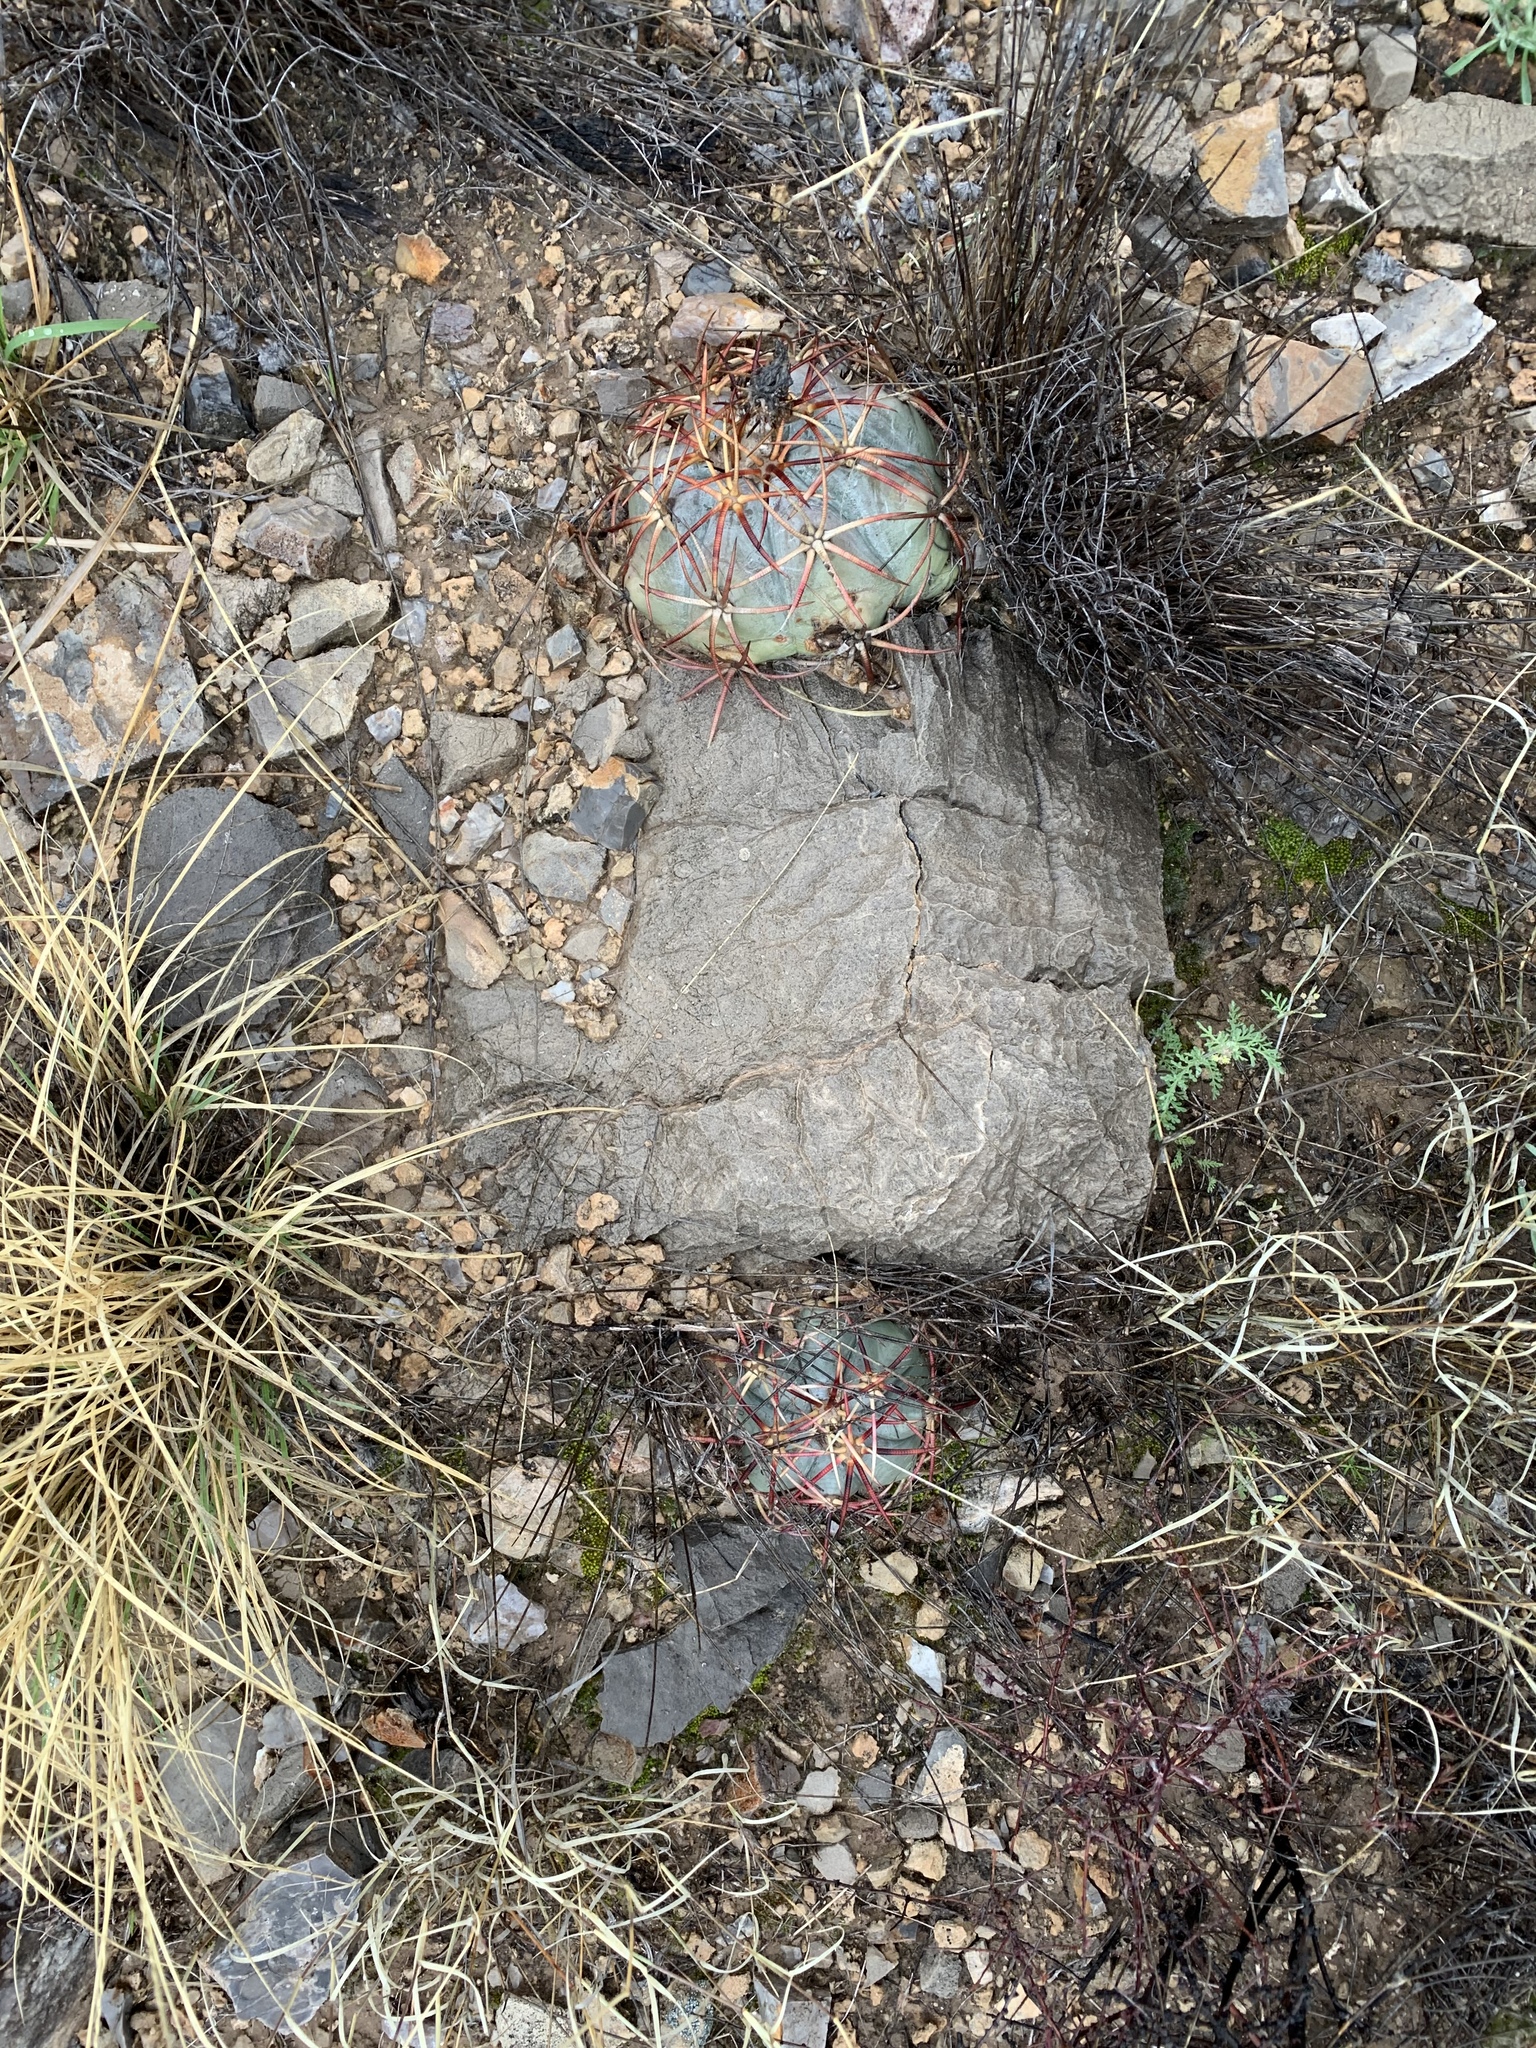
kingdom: Plantae
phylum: Tracheophyta
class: Magnoliopsida
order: Caryophyllales
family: Cactaceae
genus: Echinocactus
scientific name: Echinocactus horizonthalonius
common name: Devilshead
